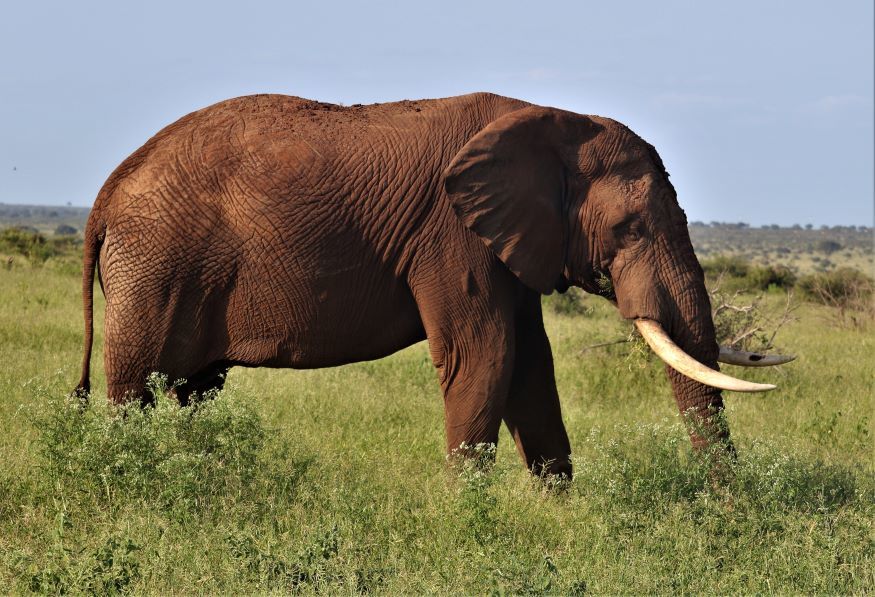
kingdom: Animalia
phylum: Chordata
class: Mammalia
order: Proboscidea
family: Elephantidae
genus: Loxodonta
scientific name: Loxodonta africana
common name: African elephant
